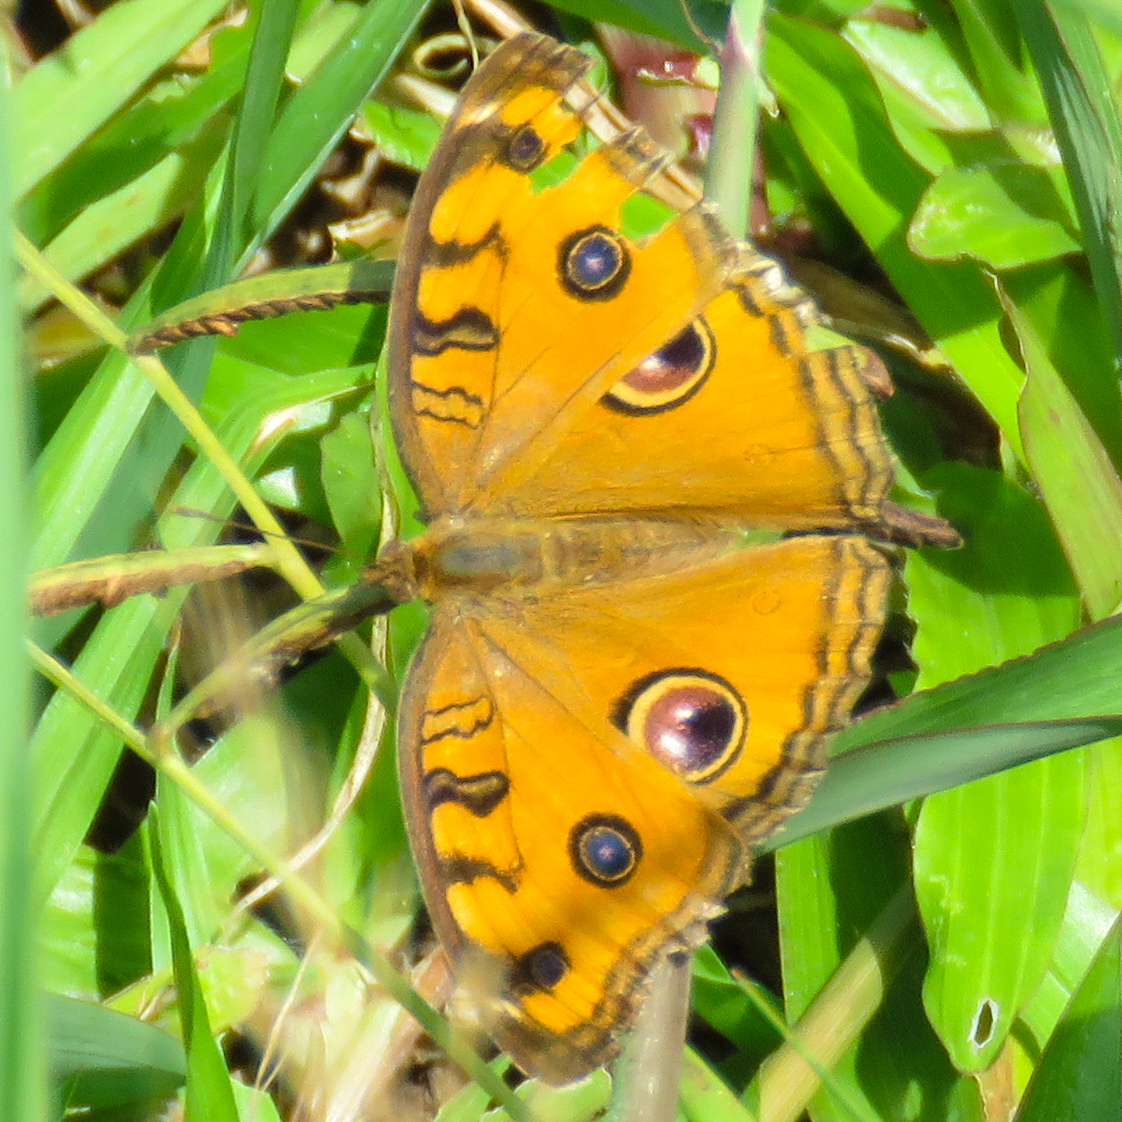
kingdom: Animalia
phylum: Arthropoda
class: Insecta
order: Lepidoptera
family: Nymphalidae
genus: Junonia
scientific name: Junonia almana
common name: Peacock pansy
